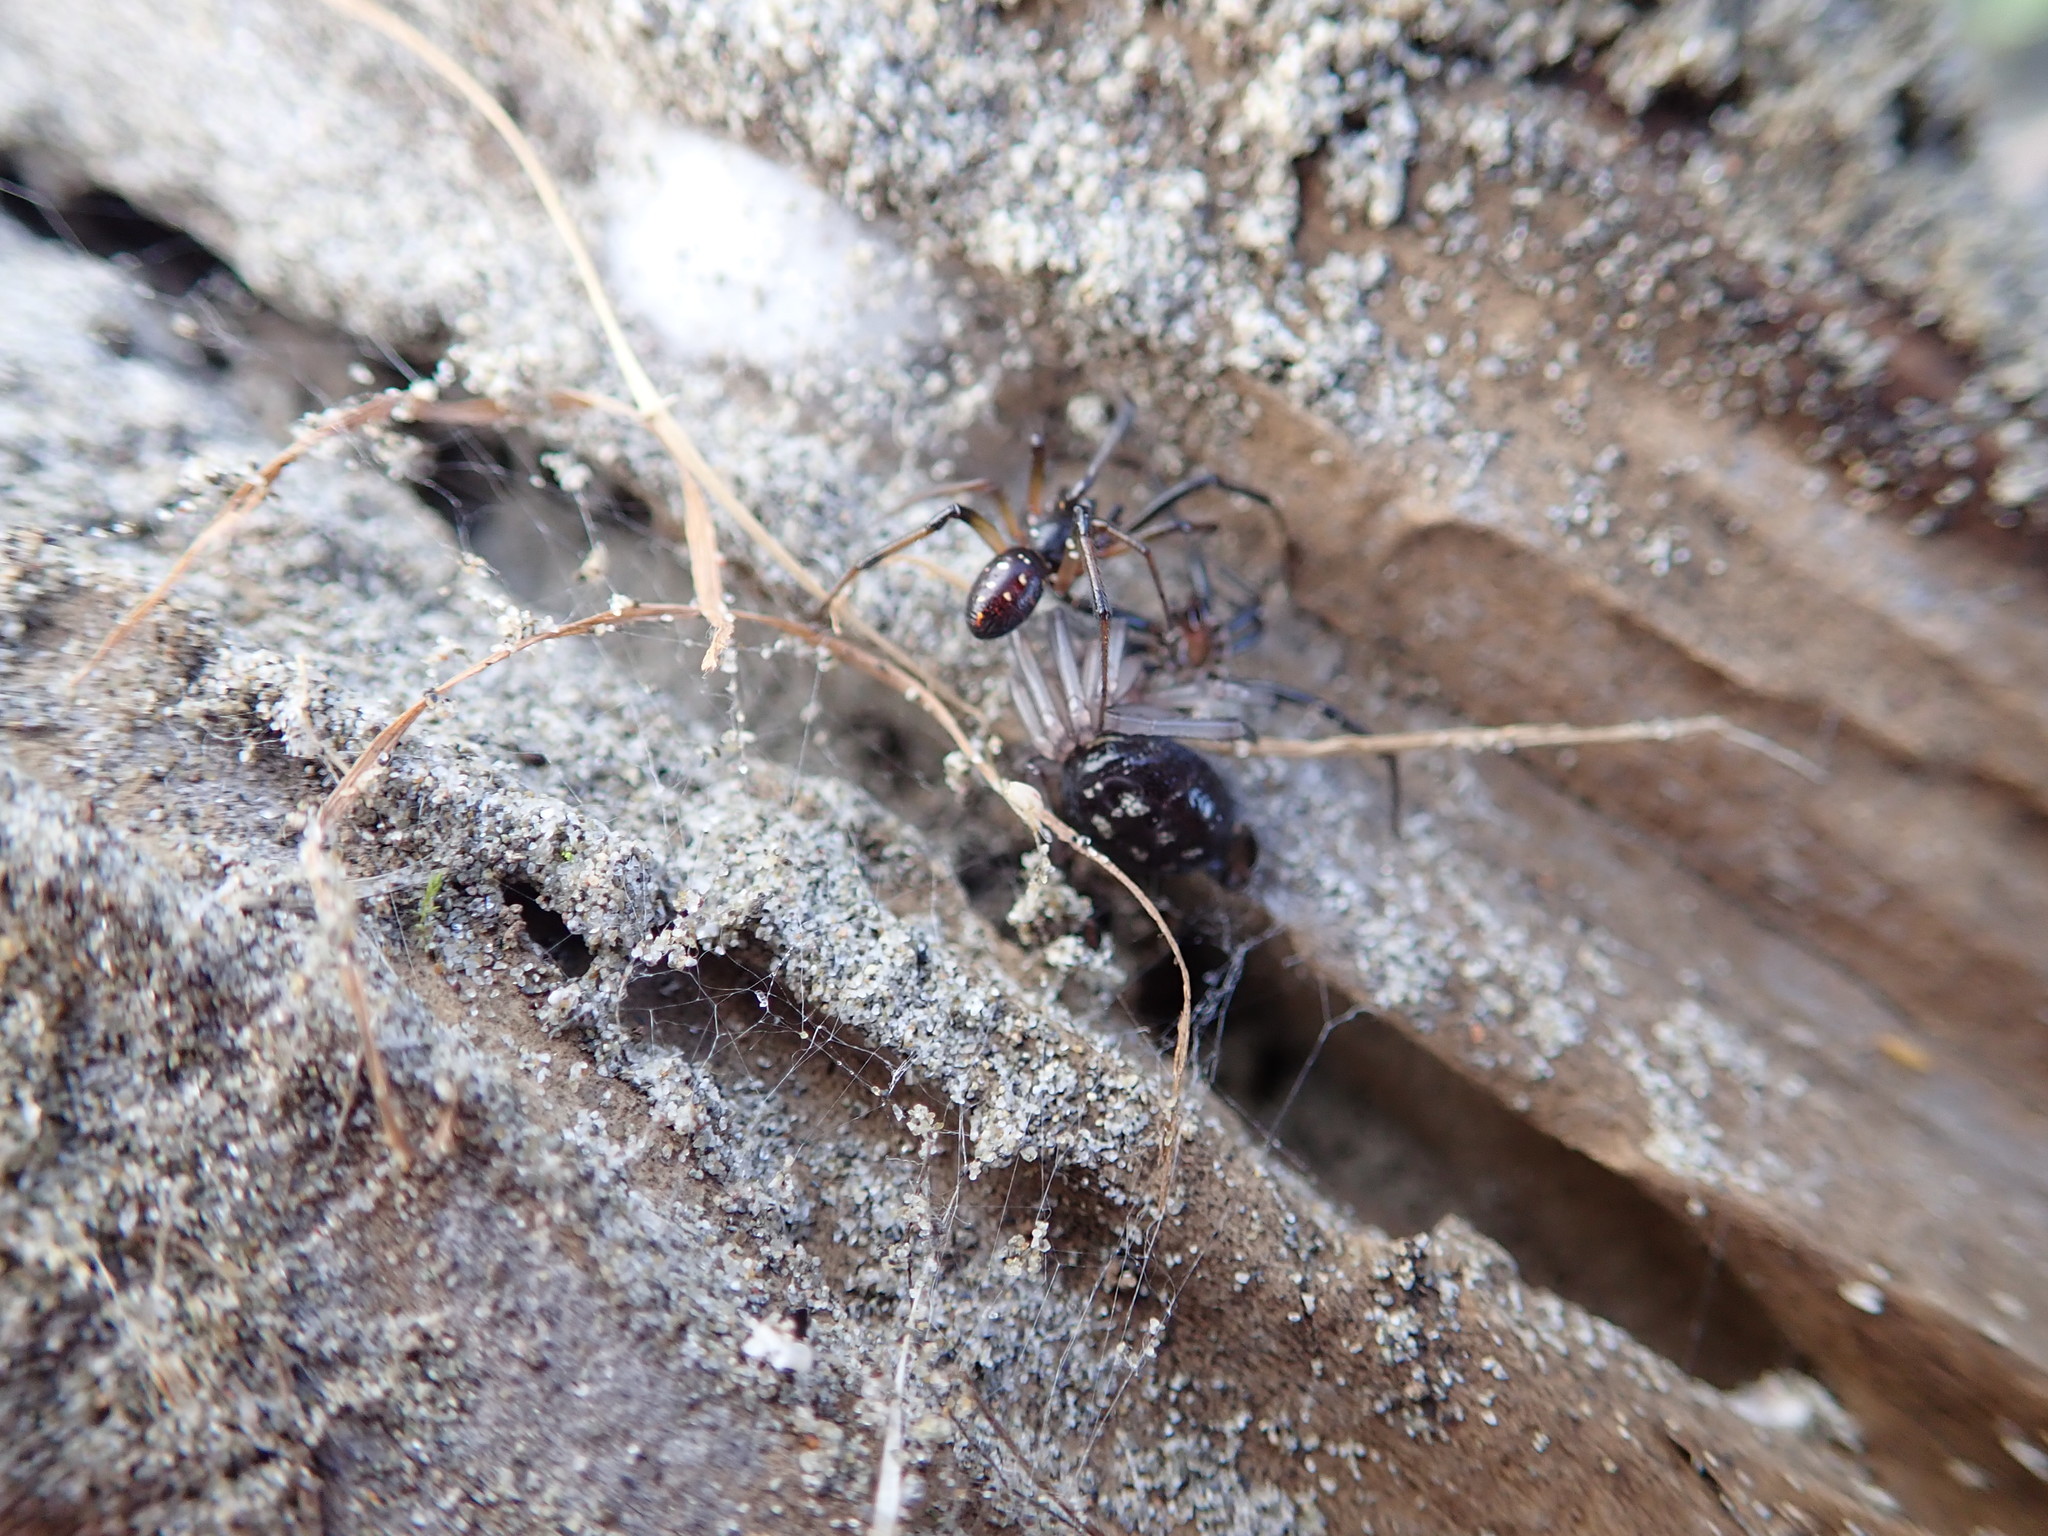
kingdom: Animalia
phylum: Arthropoda
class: Arachnida
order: Araneae
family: Theridiidae
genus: Steatoda
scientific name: Steatoda capensis
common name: Cobweb weaver
